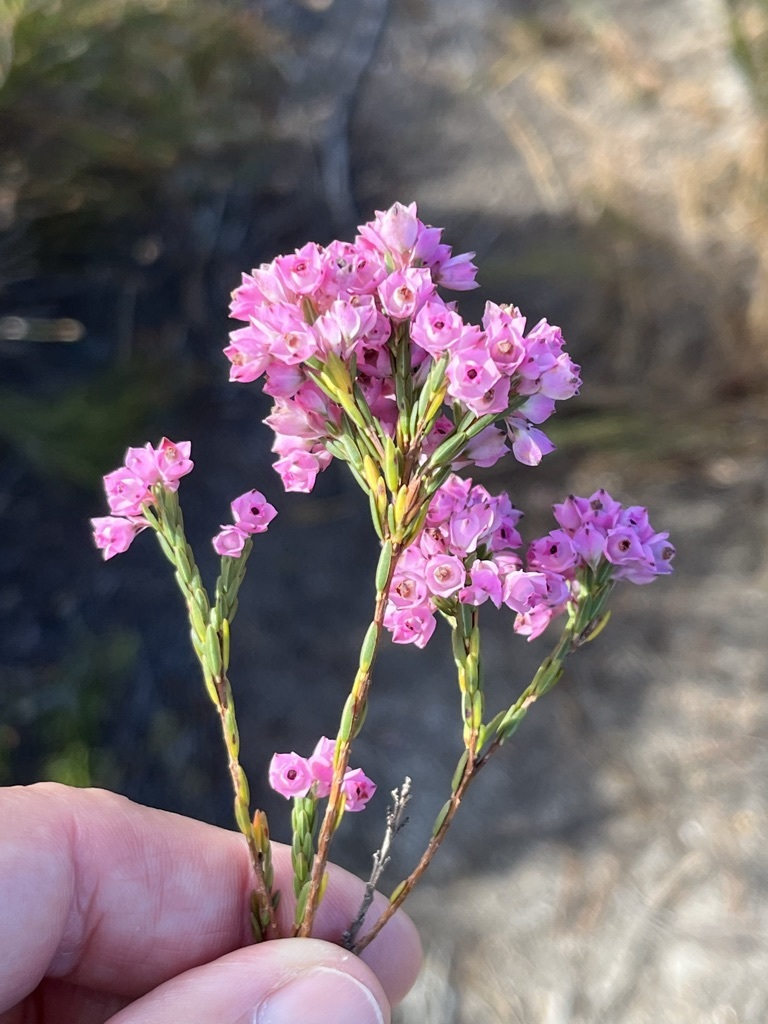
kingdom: Plantae
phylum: Tracheophyta
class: Magnoliopsida
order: Ericales
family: Ericaceae
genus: Erica
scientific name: Erica corifolia
